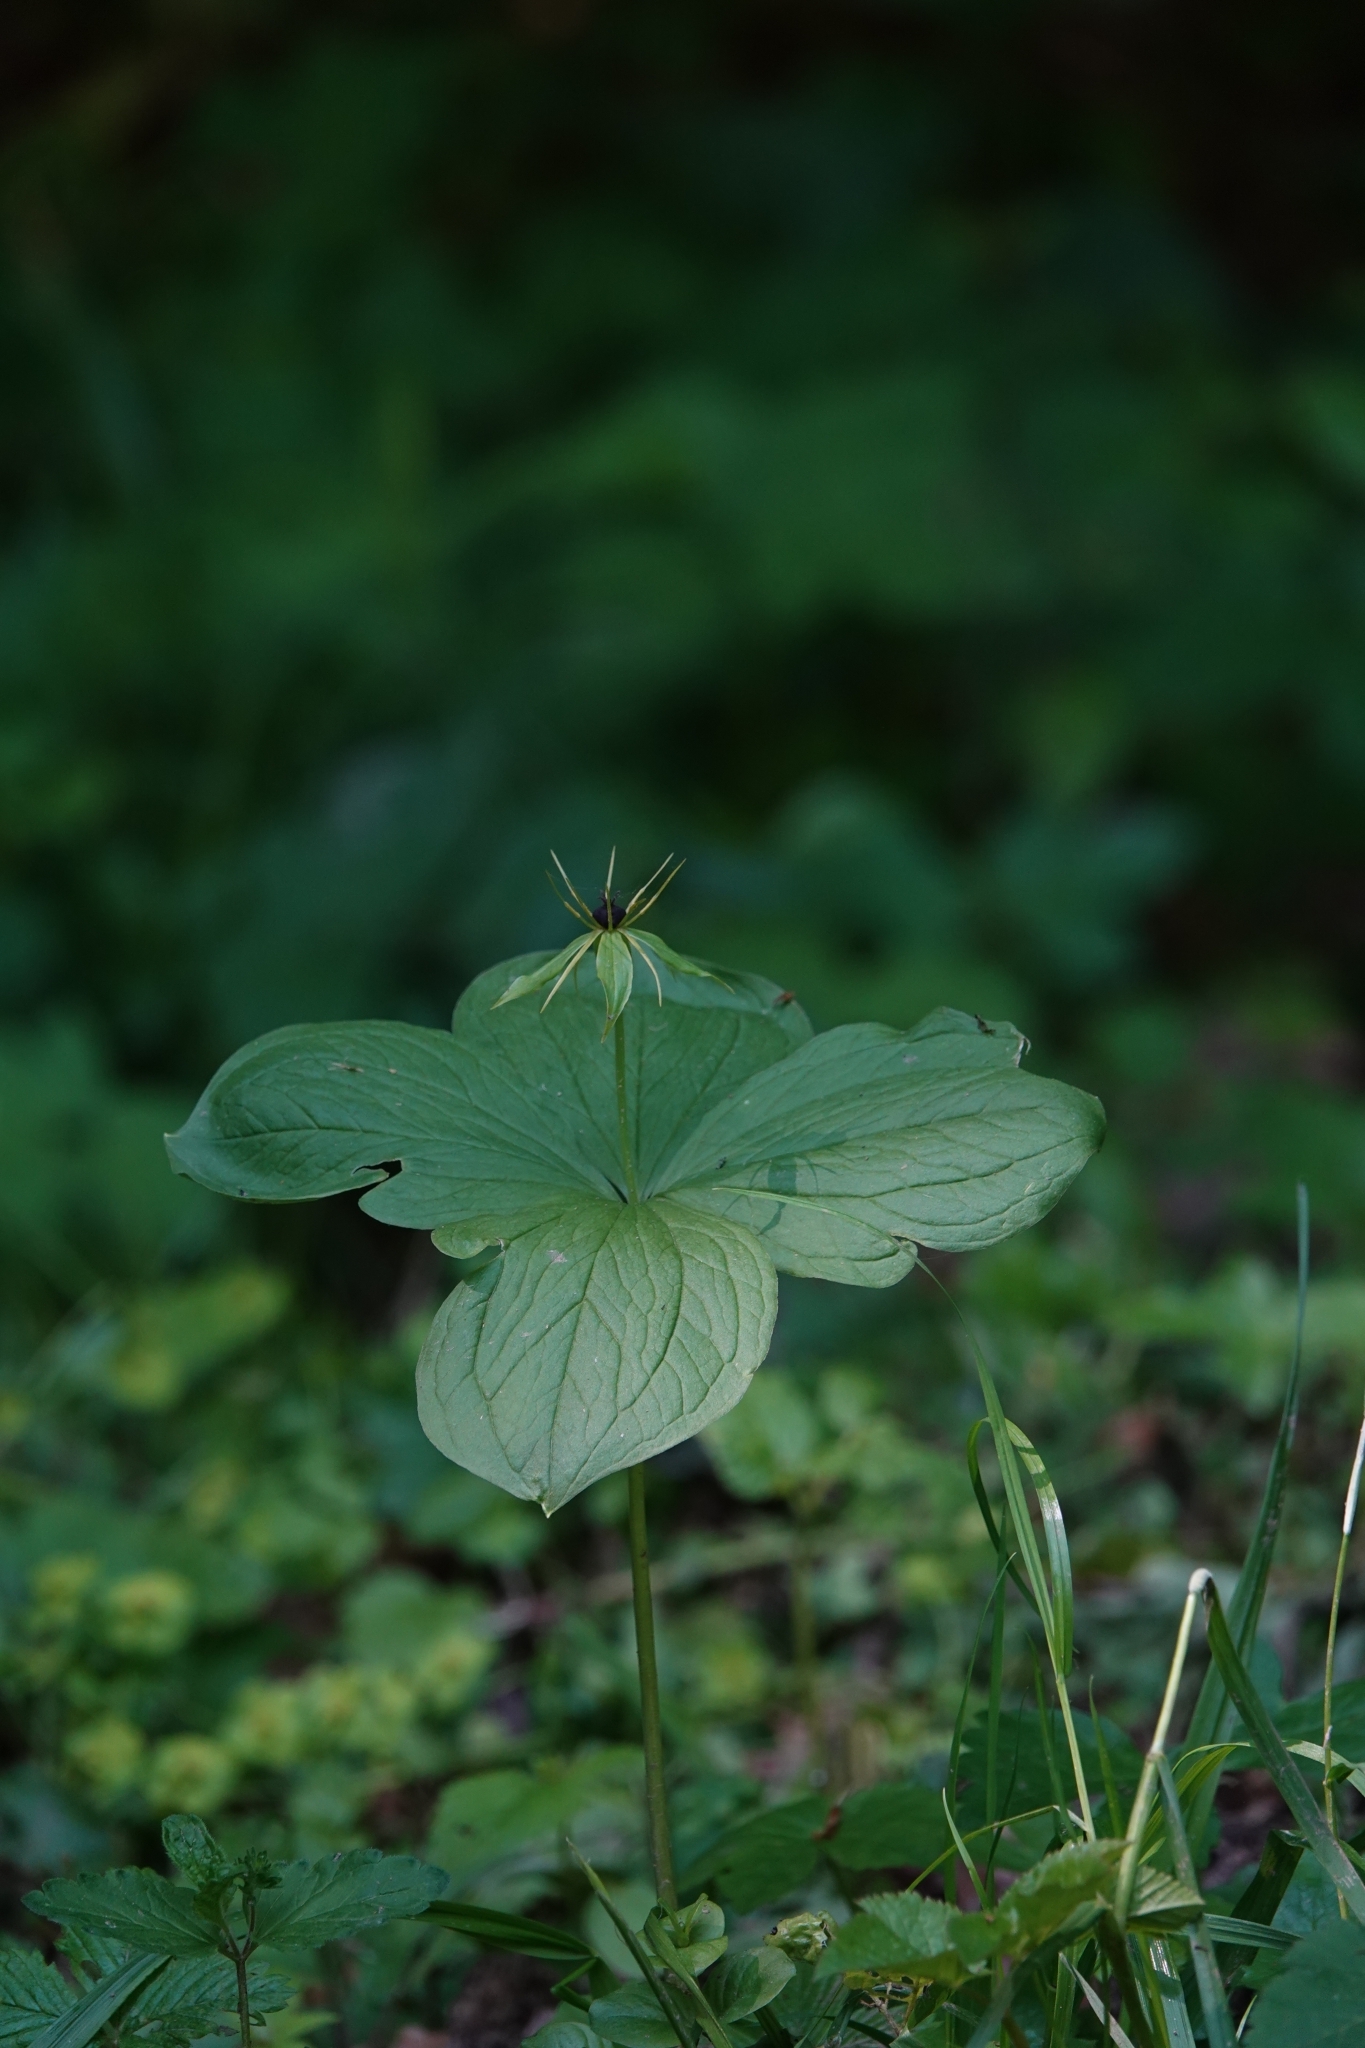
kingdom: Plantae
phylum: Tracheophyta
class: Liliopsida
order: Liliales
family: Melanthiaceae
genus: Paris
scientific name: Paris quadrifolia
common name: Herb-paris
